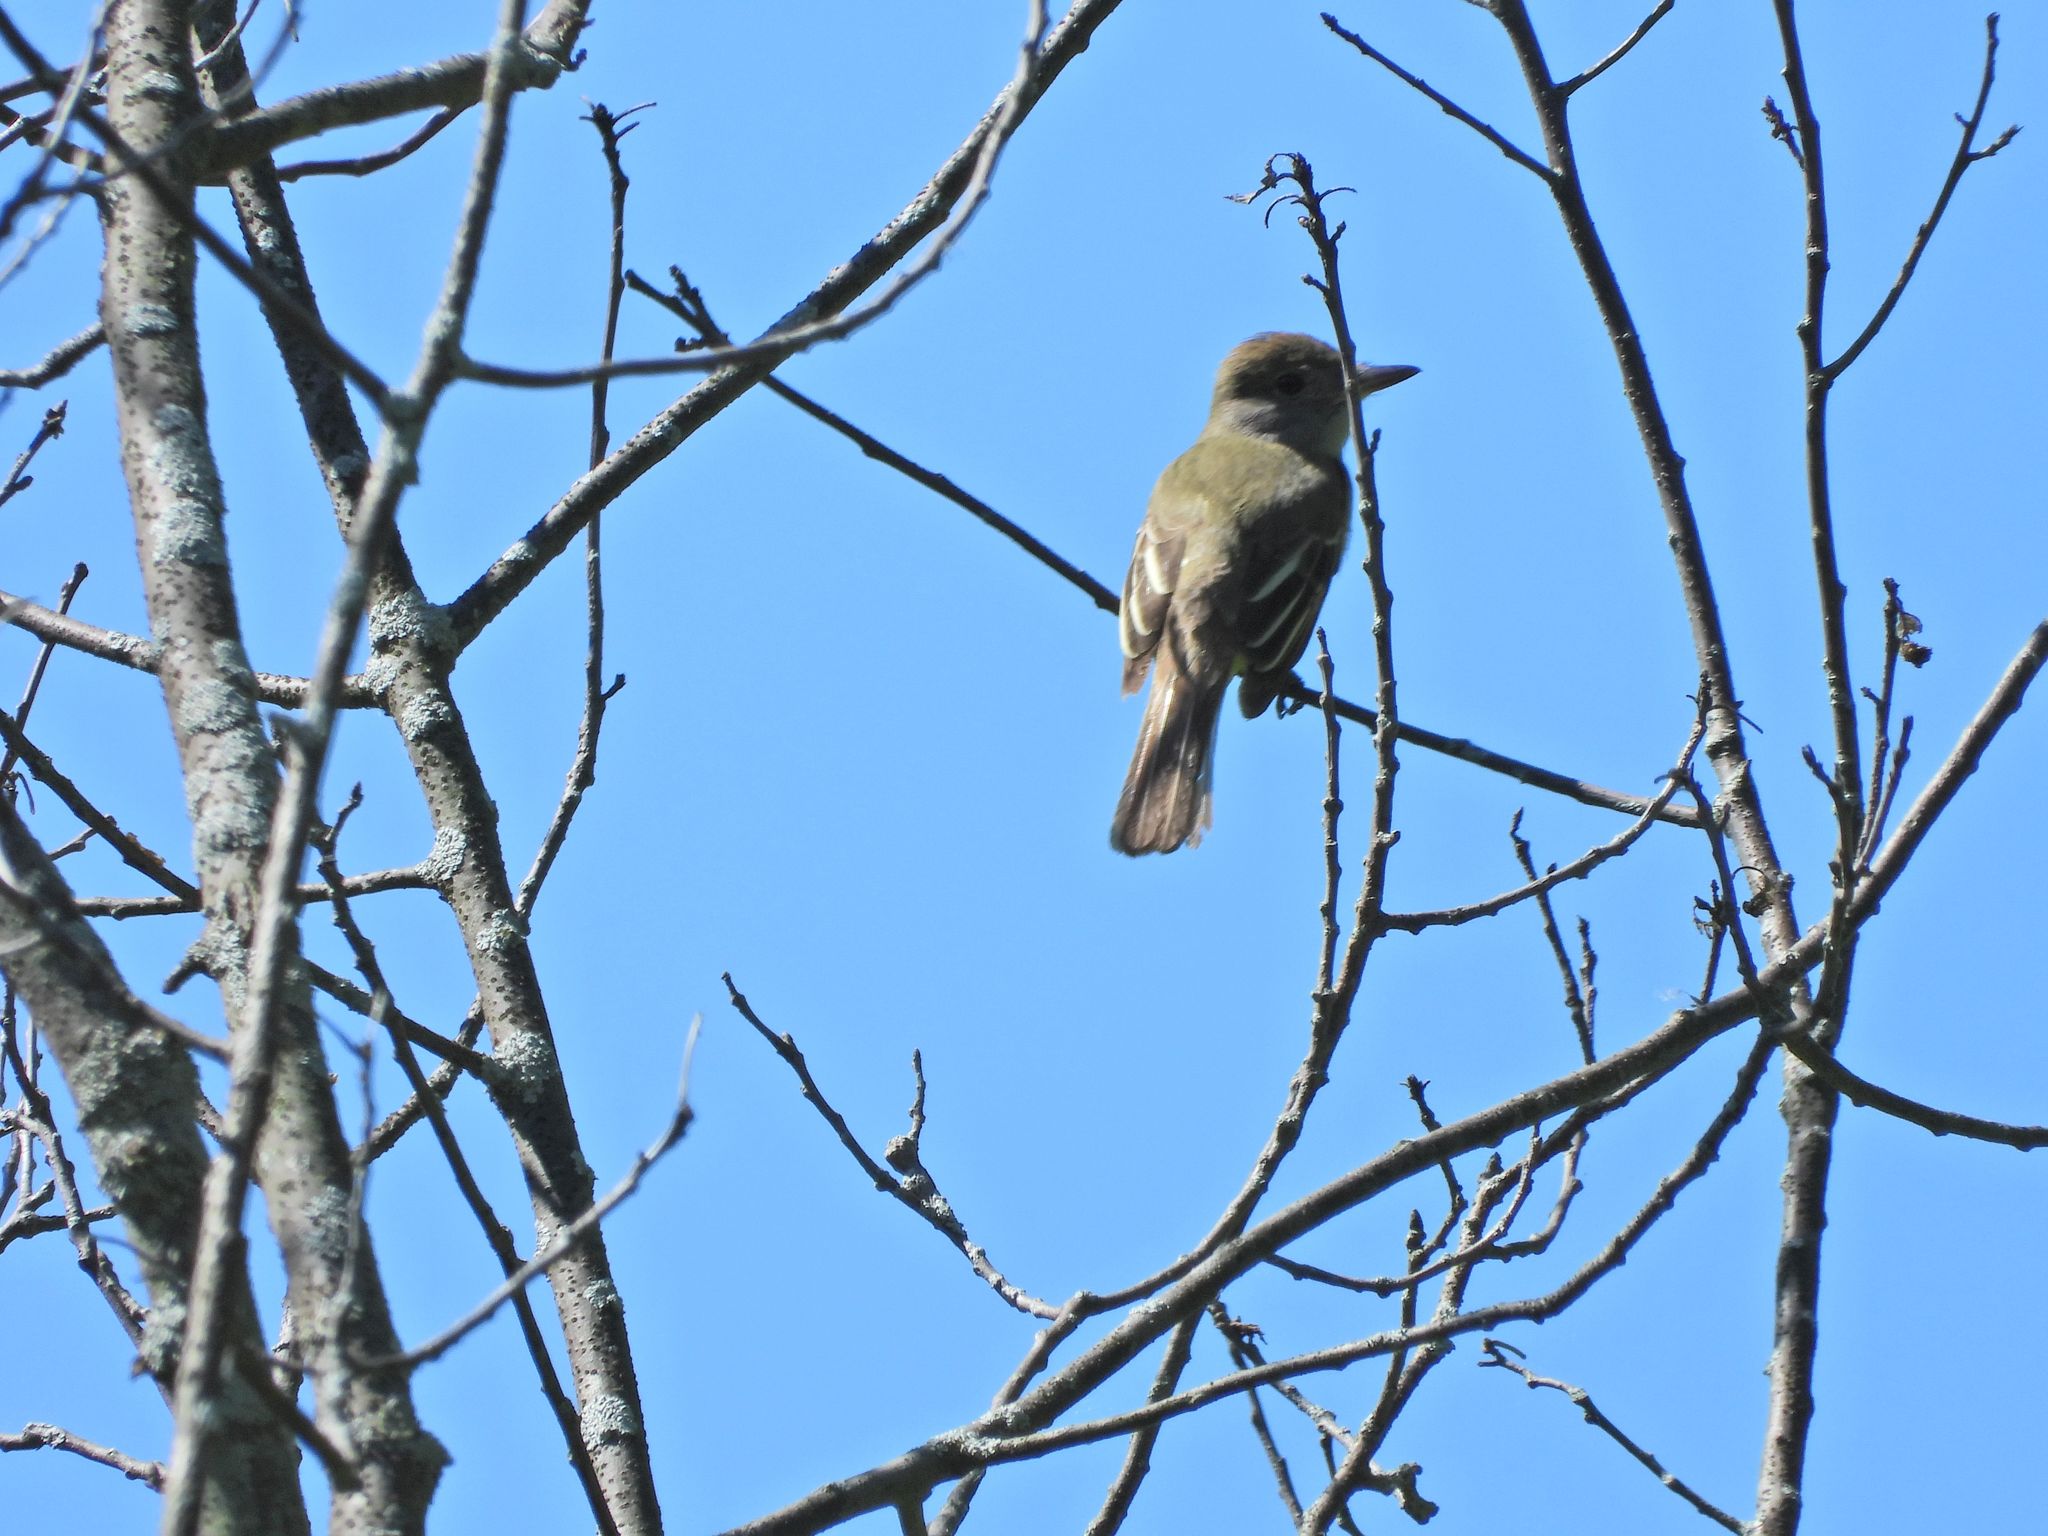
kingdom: Animalia
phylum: Chordata
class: Aves
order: Passeriformes
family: Tyrannidae
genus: Myiarchus
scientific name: Myiarchus crinitus
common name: Great crested flycatcher
